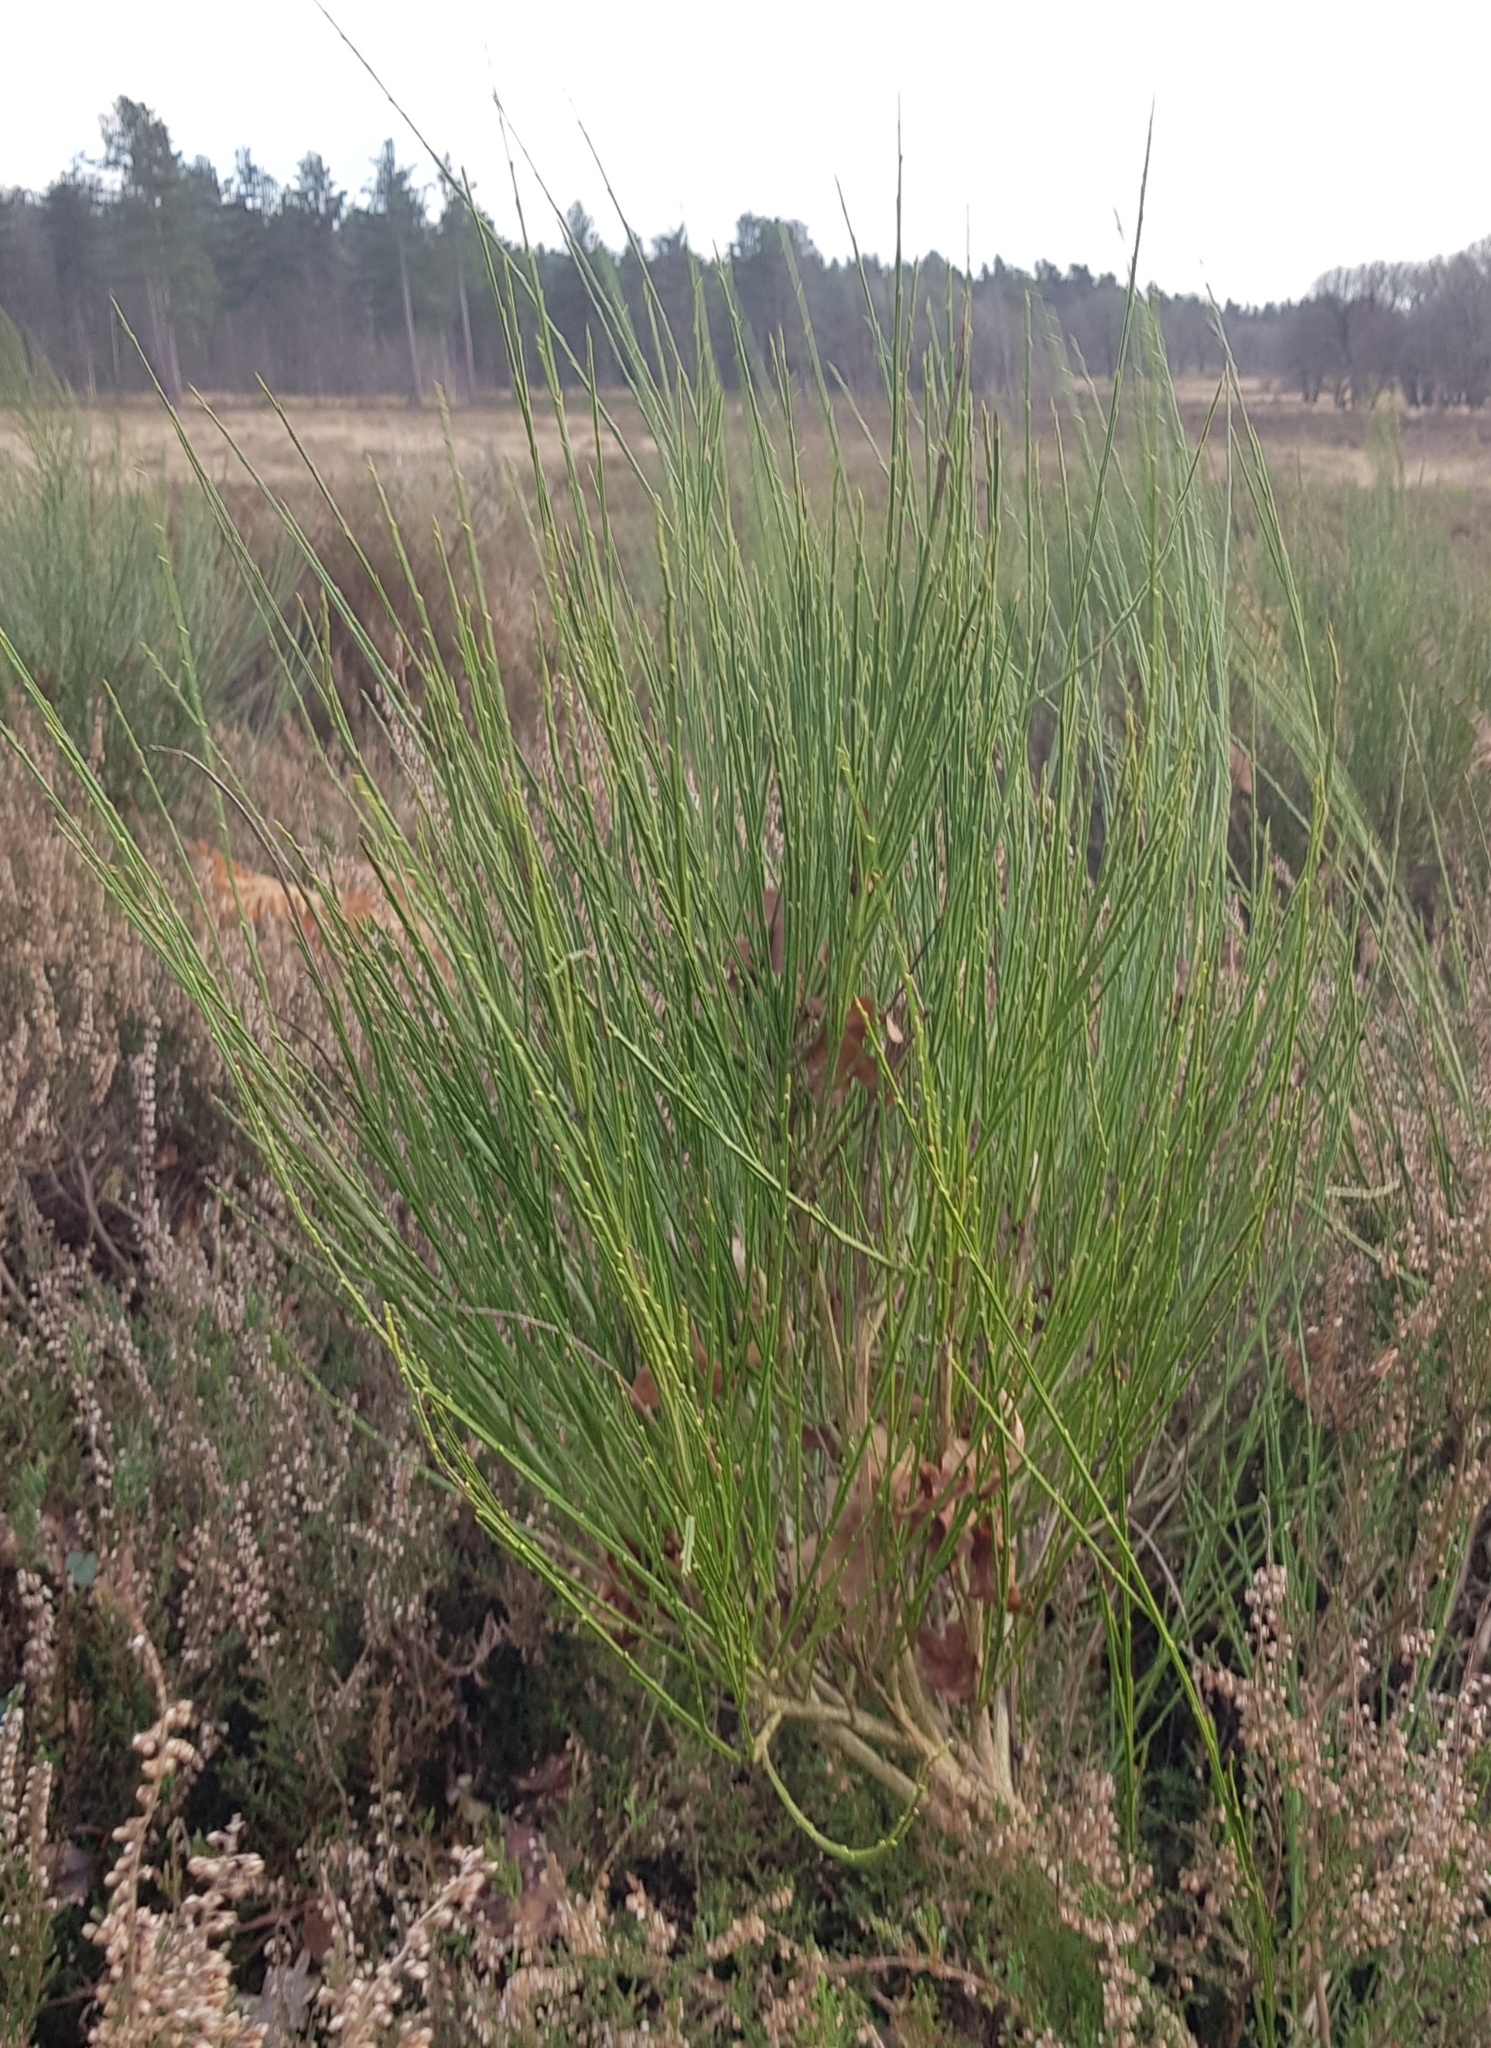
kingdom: Plantae
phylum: Tracheophyta
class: Magnoliopsida
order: Fabales
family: Fabaceae
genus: Cytisus
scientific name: Cytisus scoparius
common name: Scotch broom
